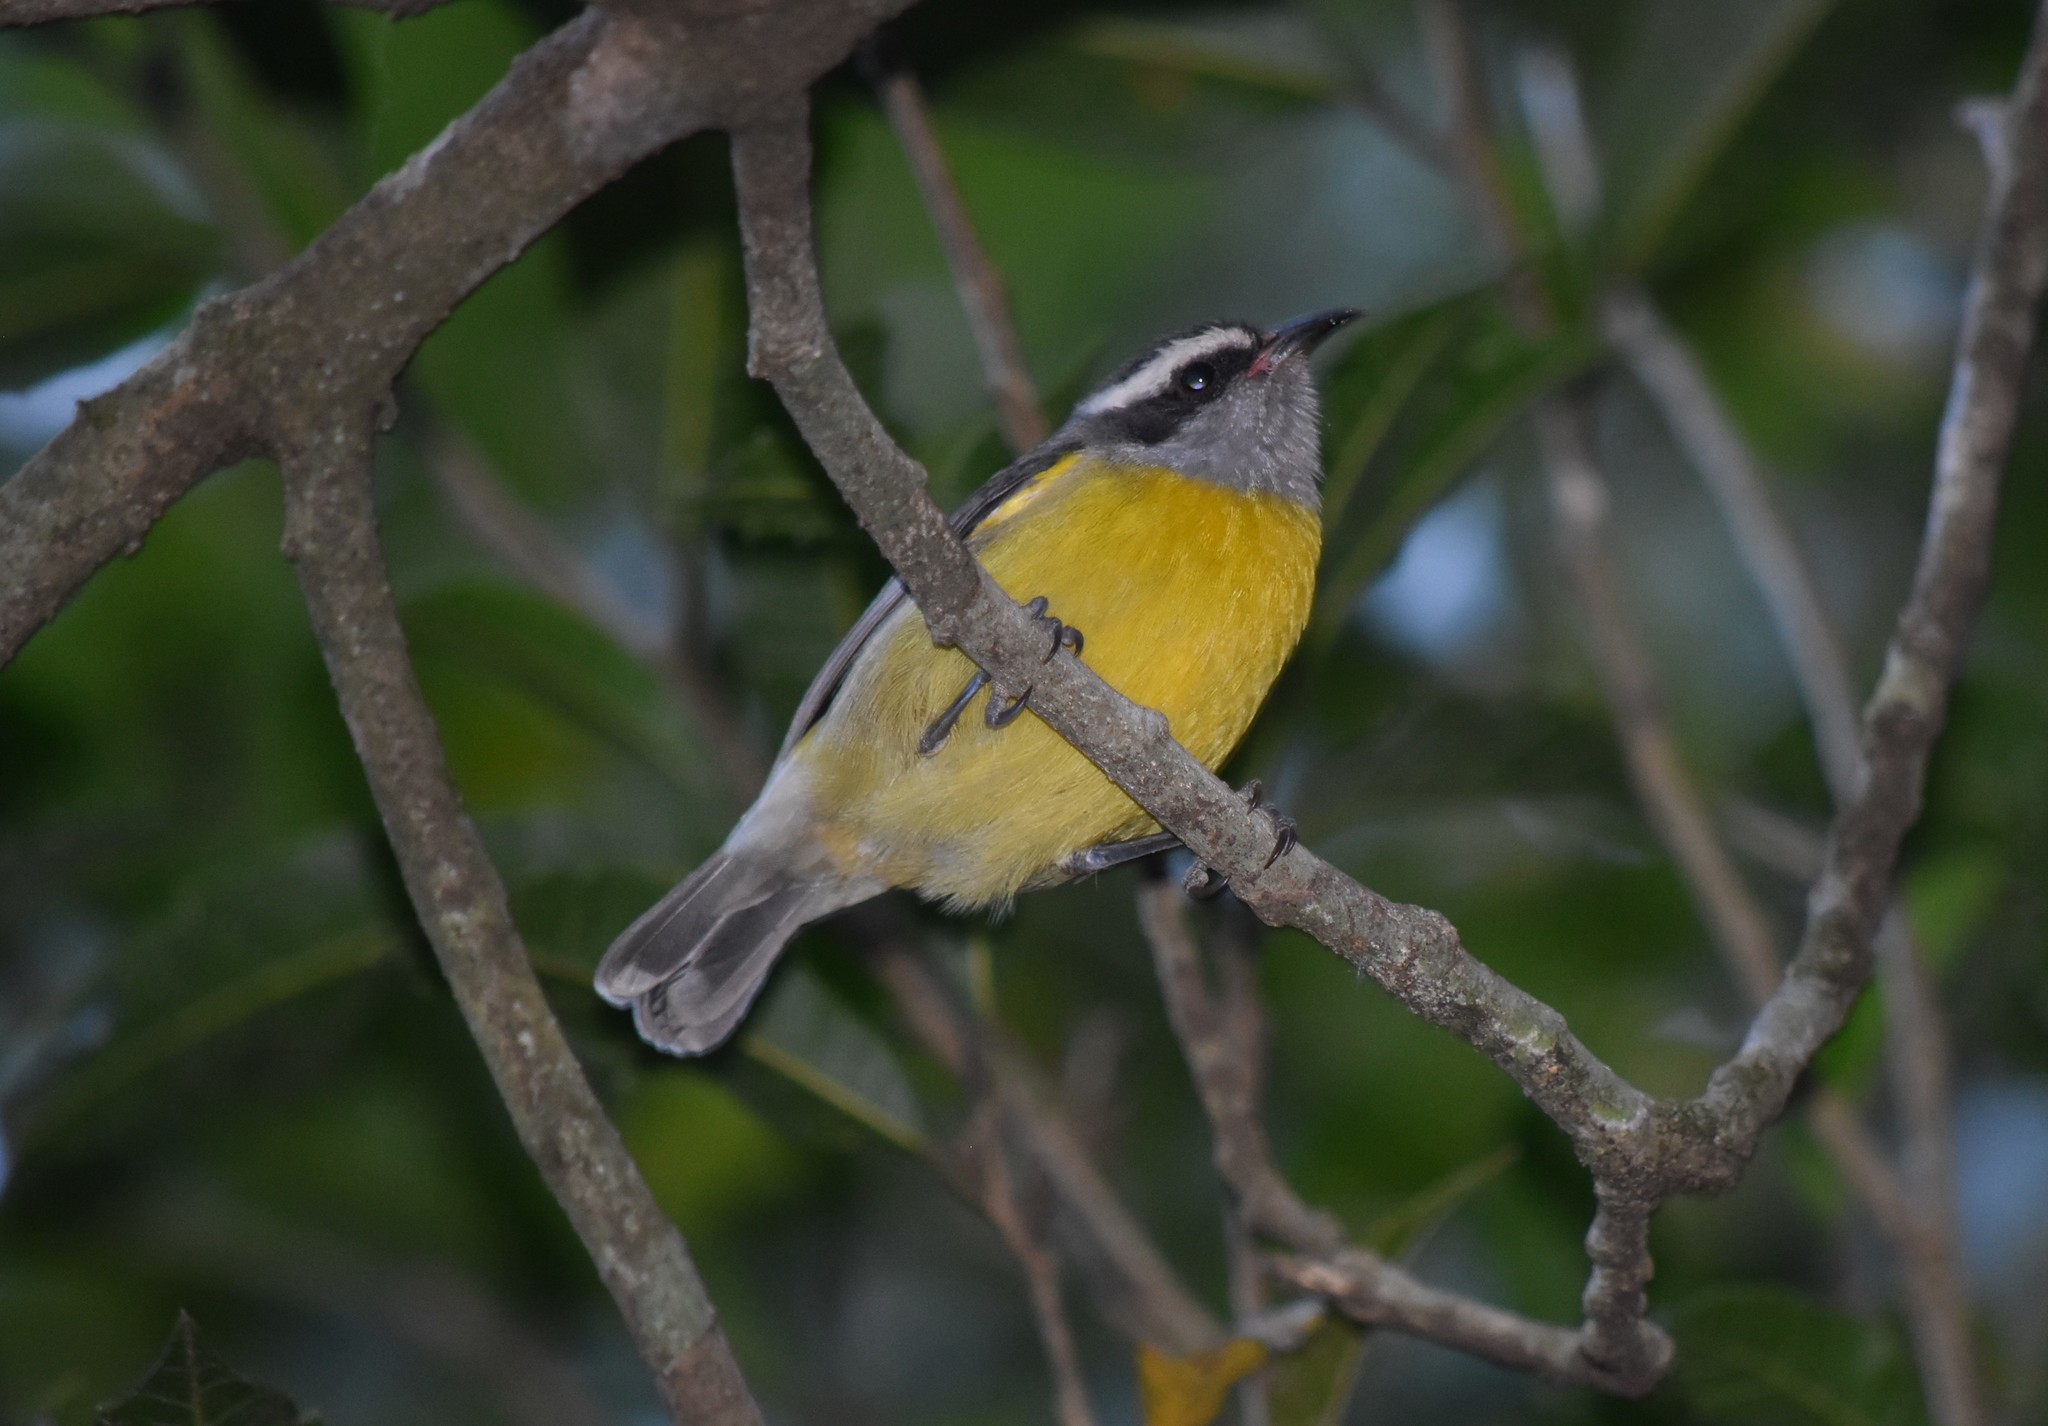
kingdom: Animalia
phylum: Chordata
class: Aves
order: Passeriformes
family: Thraupidae
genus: Coereba
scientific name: Coereba flaveola
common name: Bananaquit
